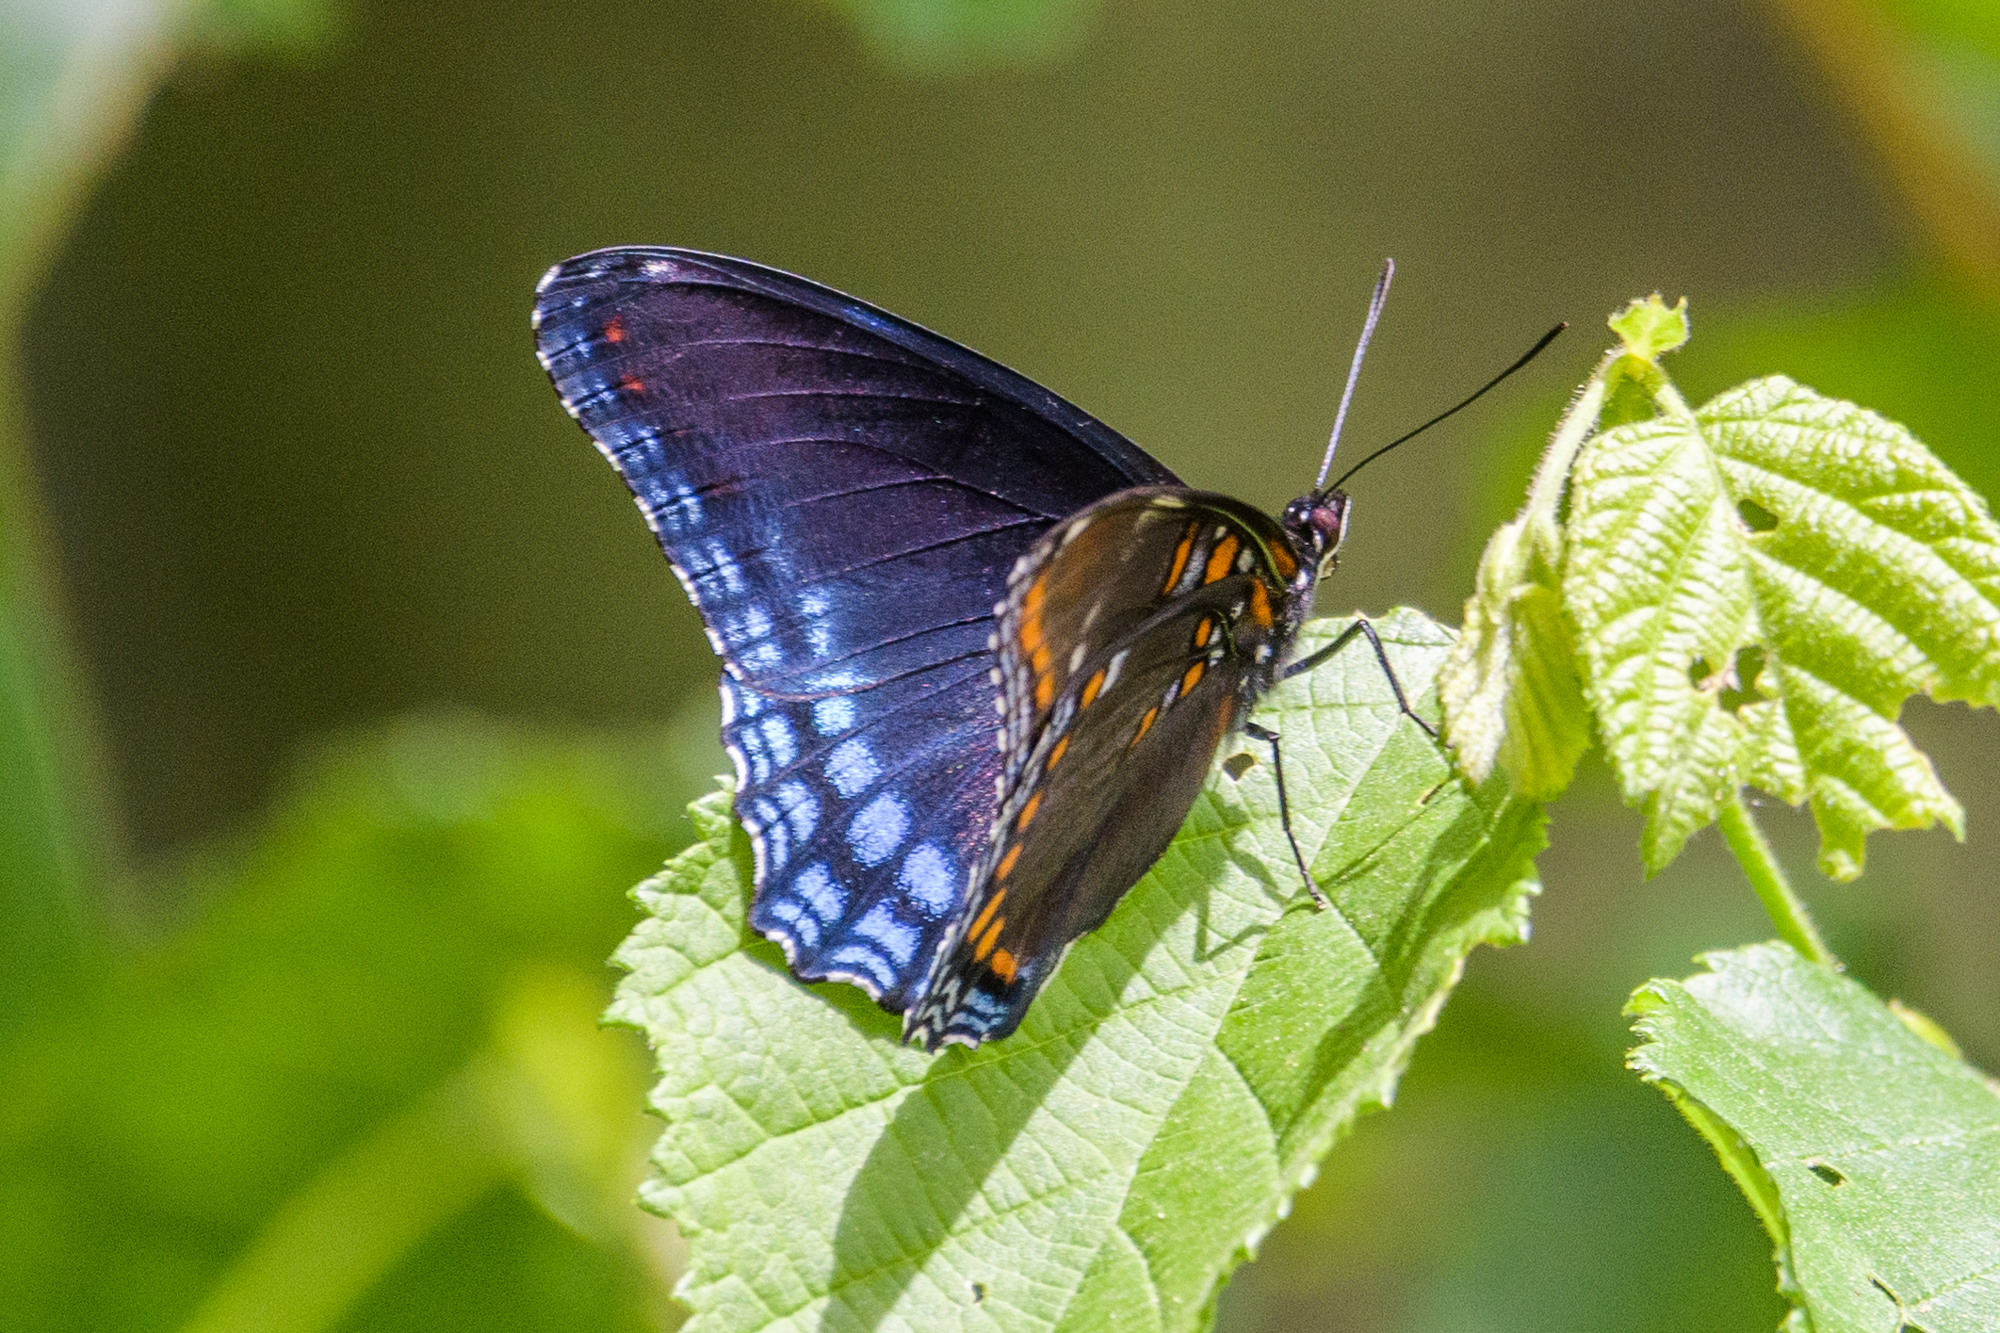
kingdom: Animalia
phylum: Arthropoda
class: Insecta
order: Lepidoptera
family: Nymphalidae
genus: Limenitis
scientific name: Limenitis
